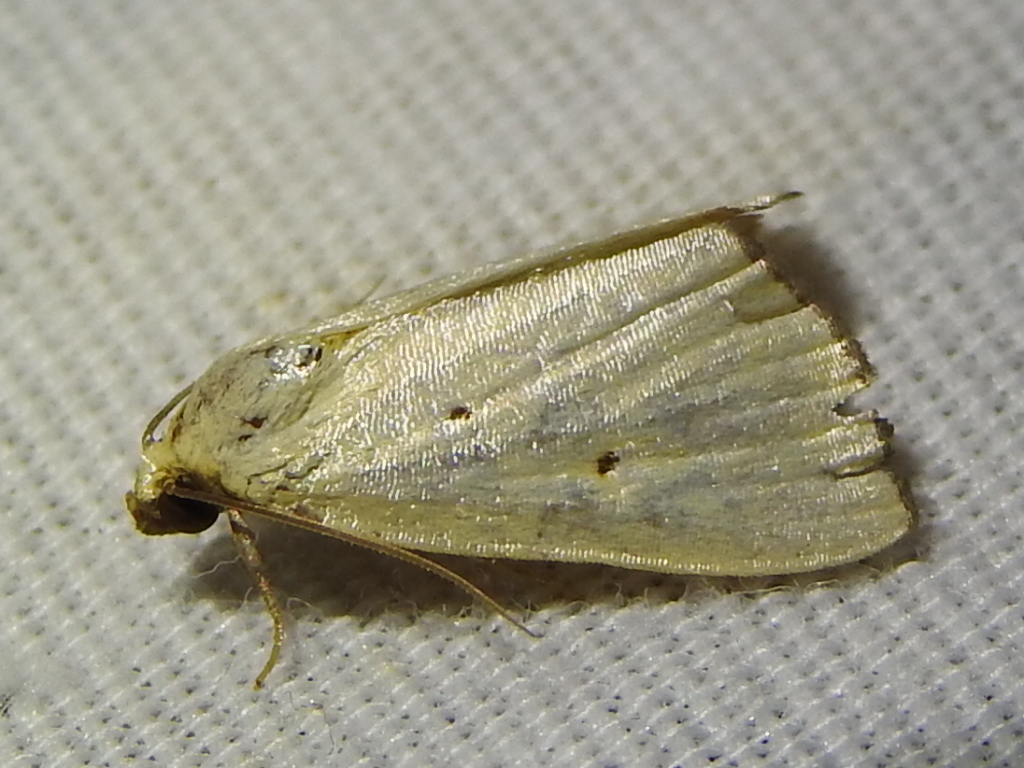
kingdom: Animalia
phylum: Arthropoda
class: Insecta
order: Lepidoptera
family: Noctuidae
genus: Marimatha
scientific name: Marimatha nigrofimbria
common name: Black-bordered lemon moth
